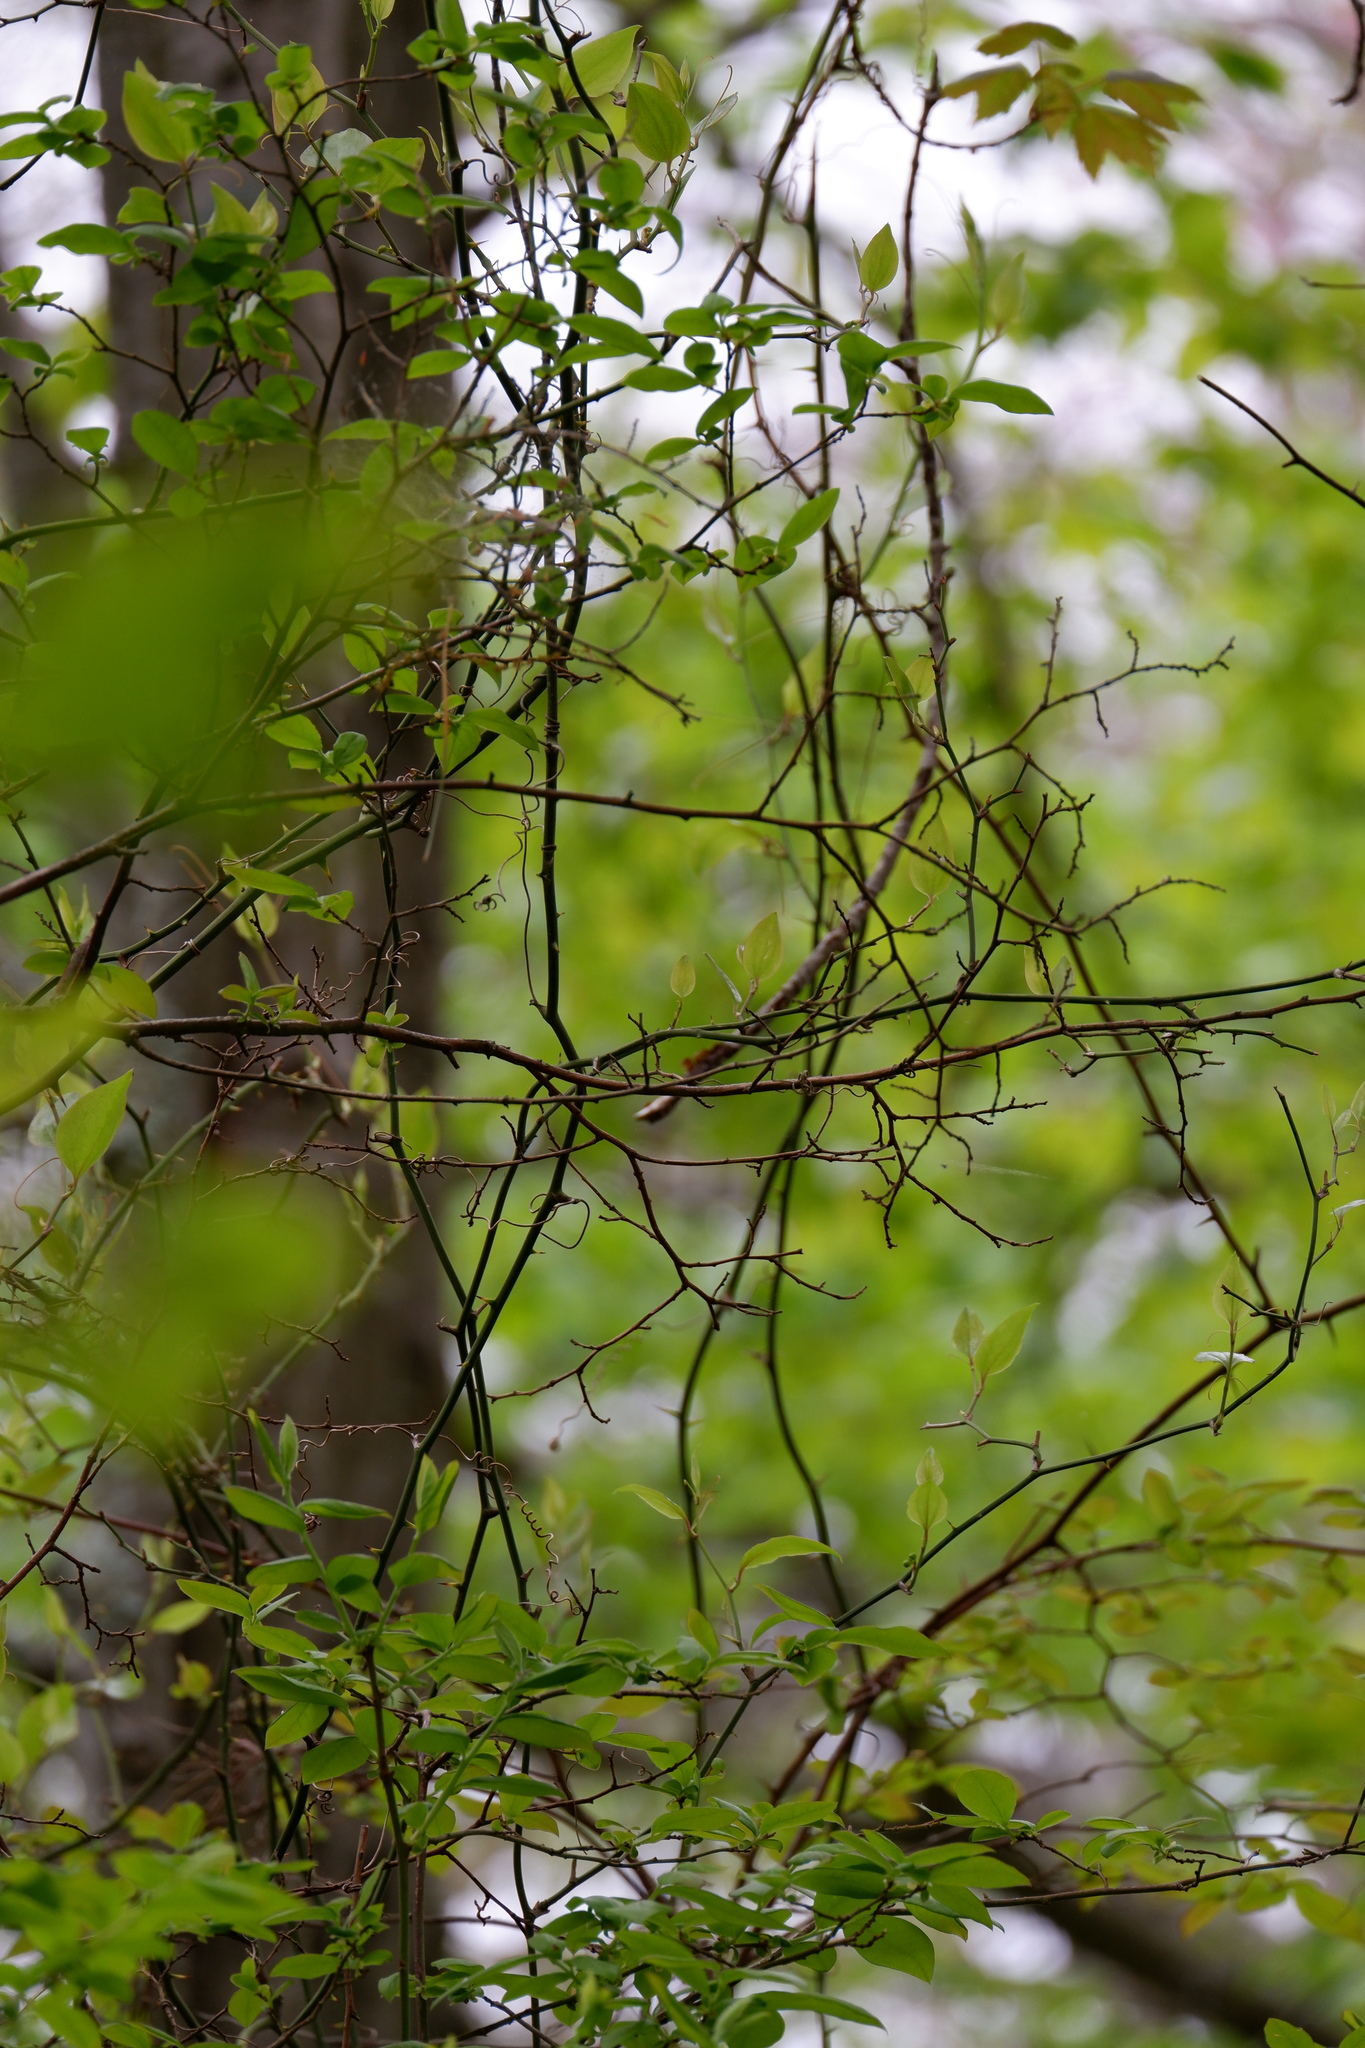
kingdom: Plantae
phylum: Tracheophyta
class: Liliopsida
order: Liliales
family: Smilacaceae
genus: Smilax
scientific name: Smilax rotundifolia
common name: Bullbriar
